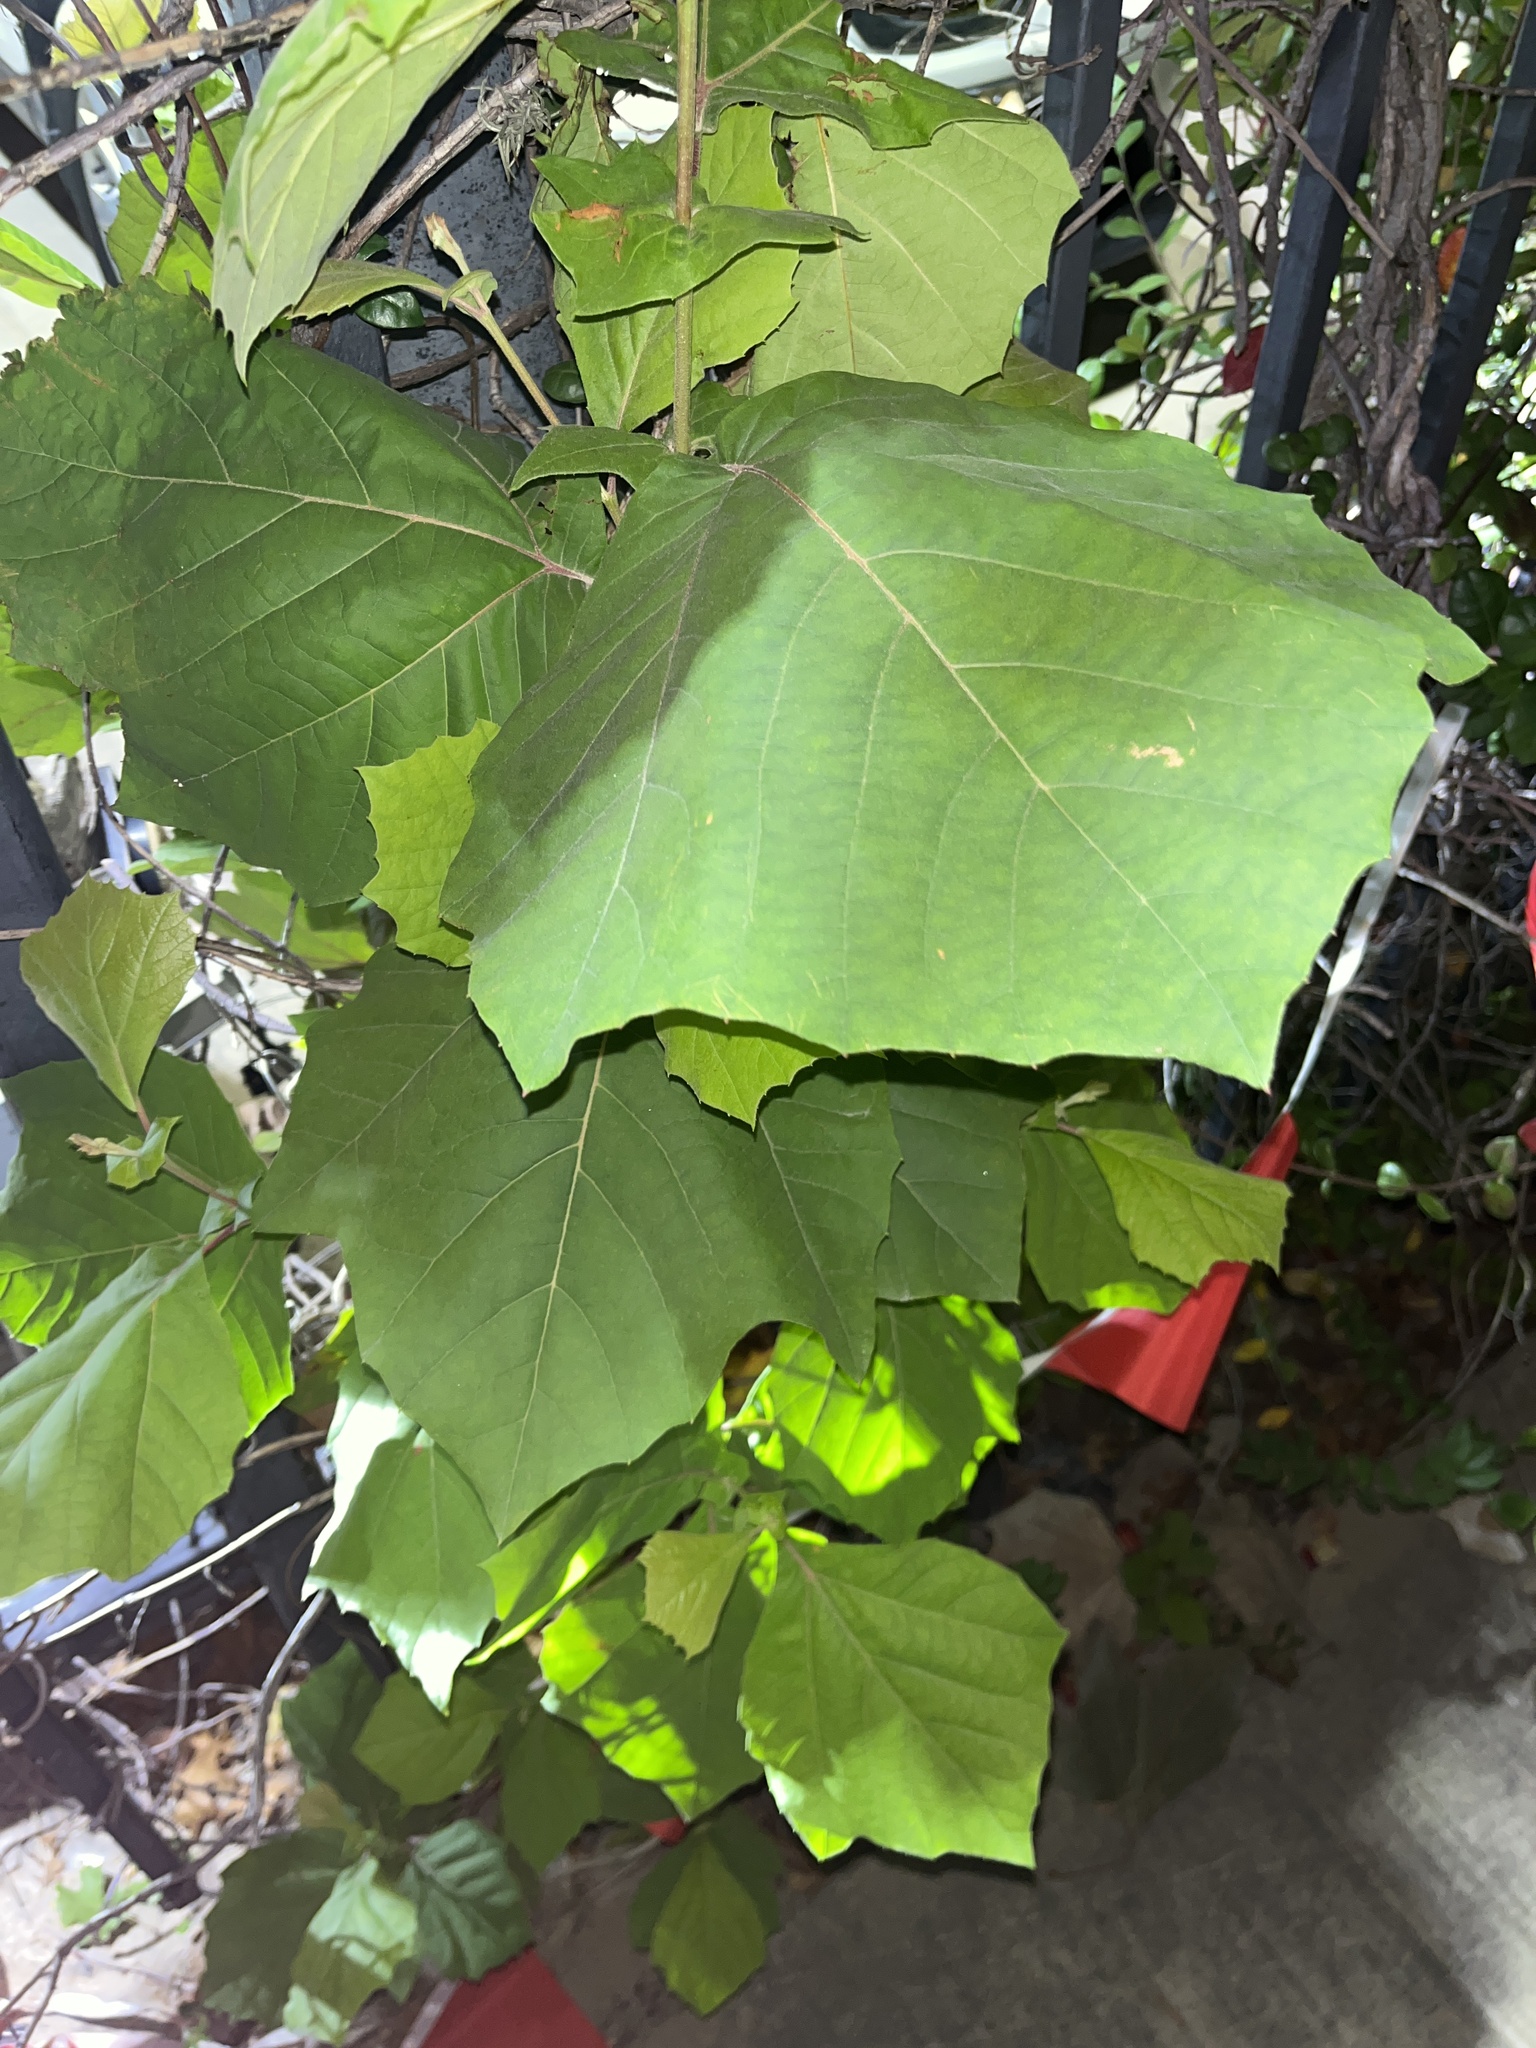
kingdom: Plantae
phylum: Tracheophyta
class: Magnoliopsida
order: Proteales
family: Platanaceae
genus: Platanus
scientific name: Platanus occidentalis
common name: American sycamore
